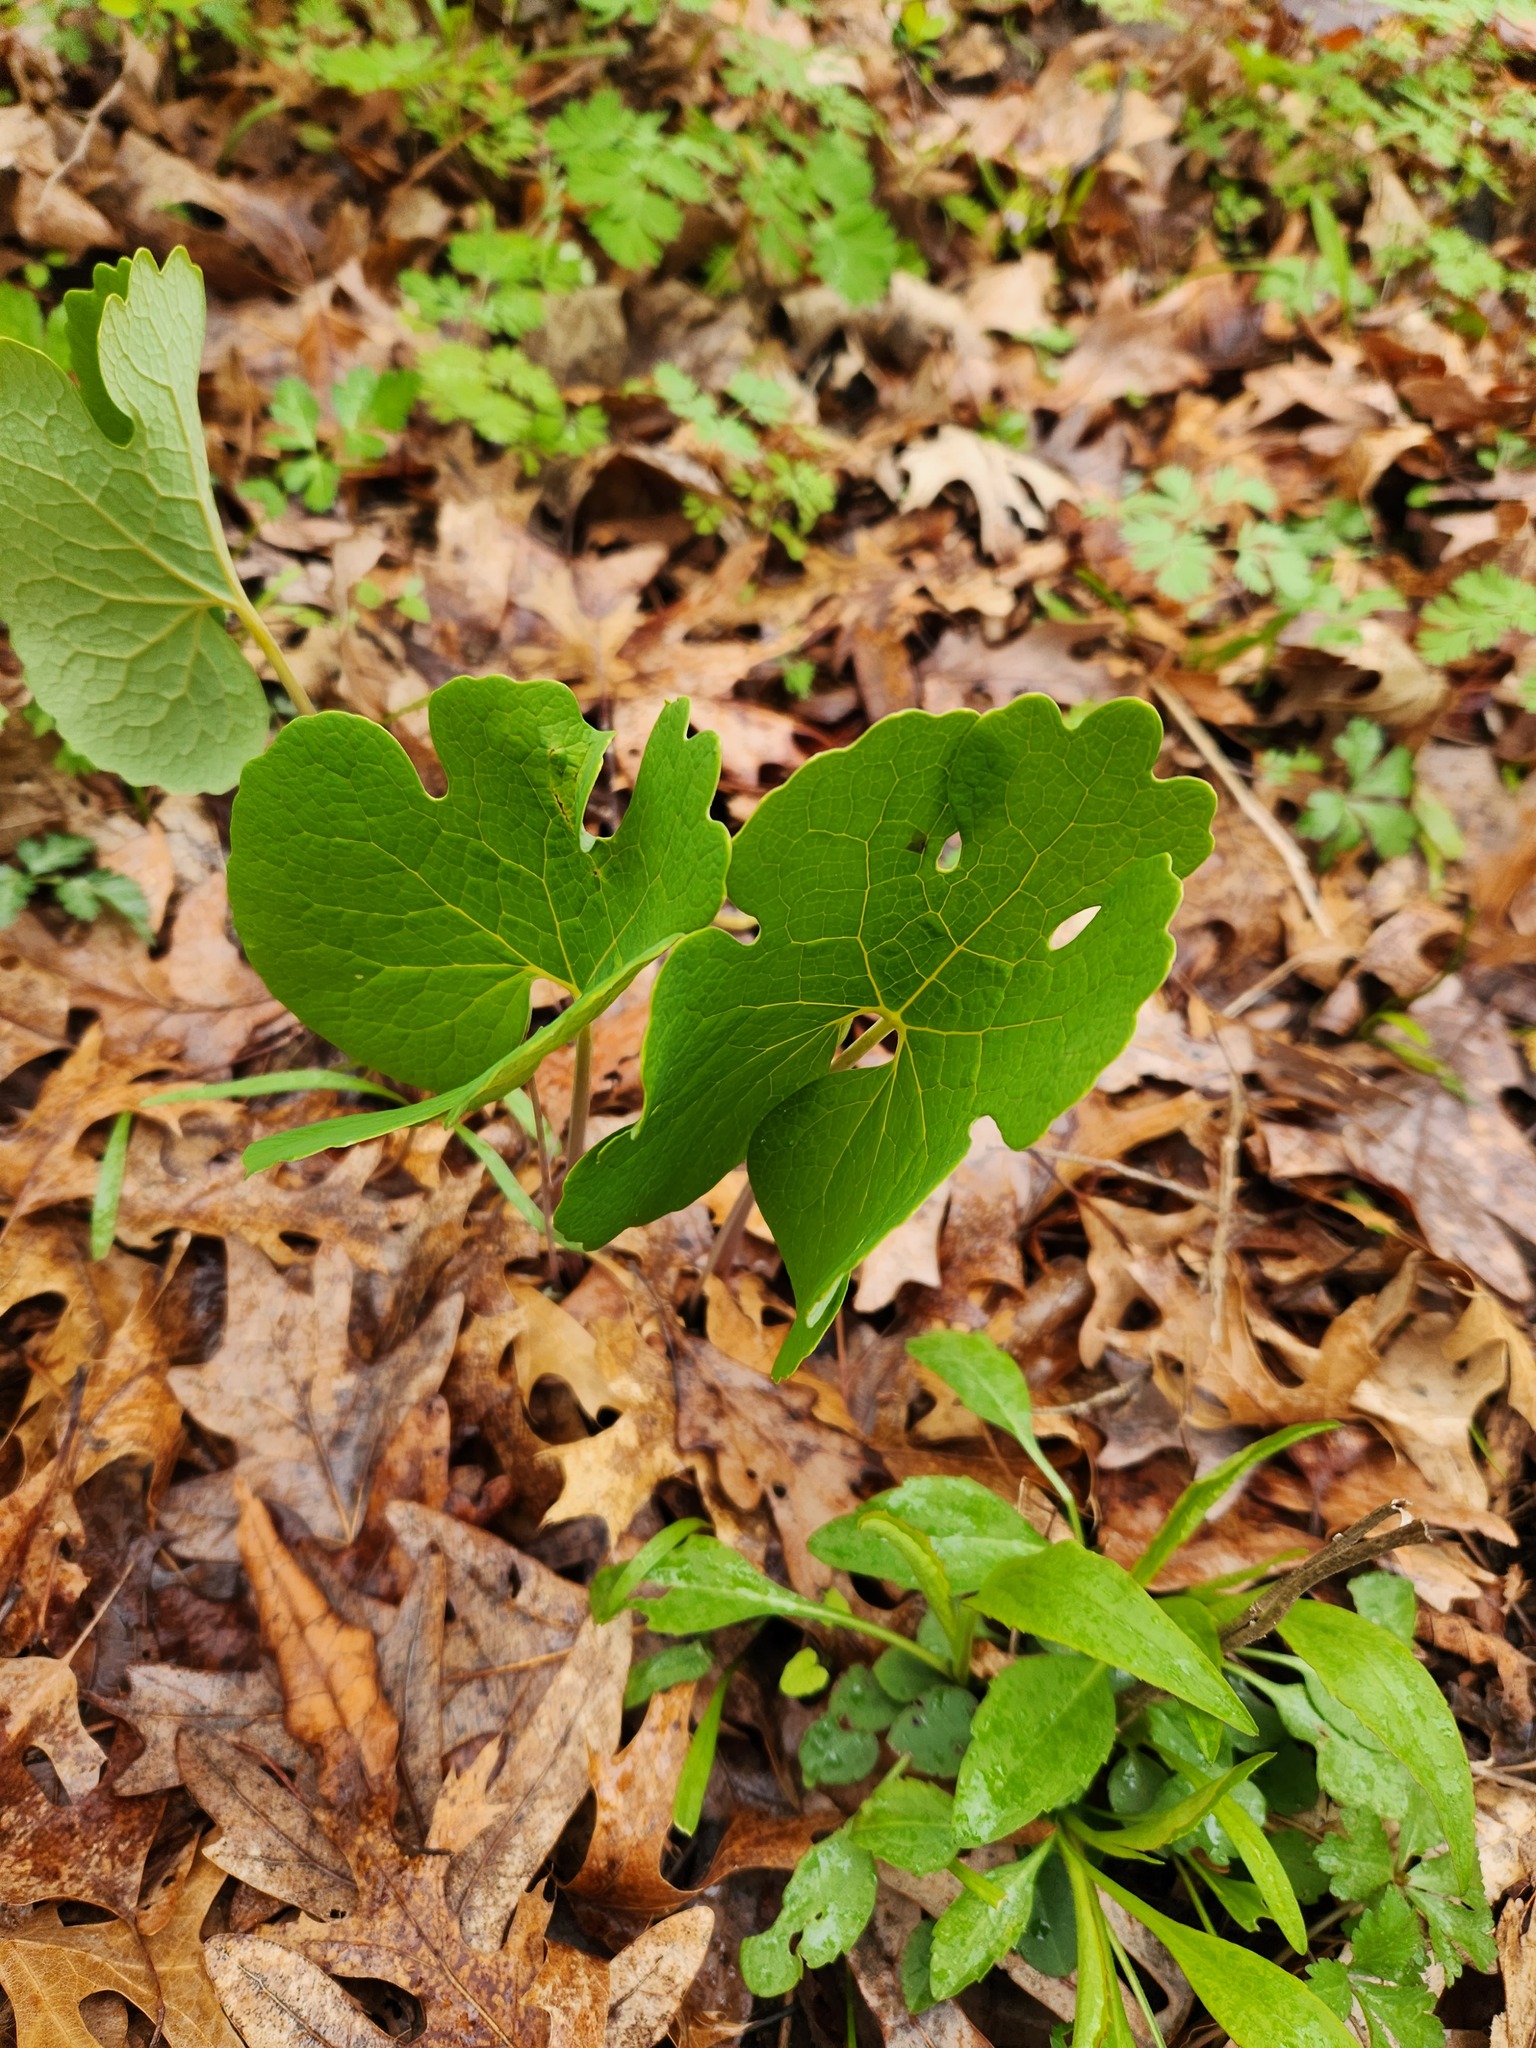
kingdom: Plantae
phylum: Tracheophyta
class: Magnoliopsida
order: Ranunculales
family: Papaveraceae
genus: Sanguinaria
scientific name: Sanguinaria canadensis
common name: Bloodroot
